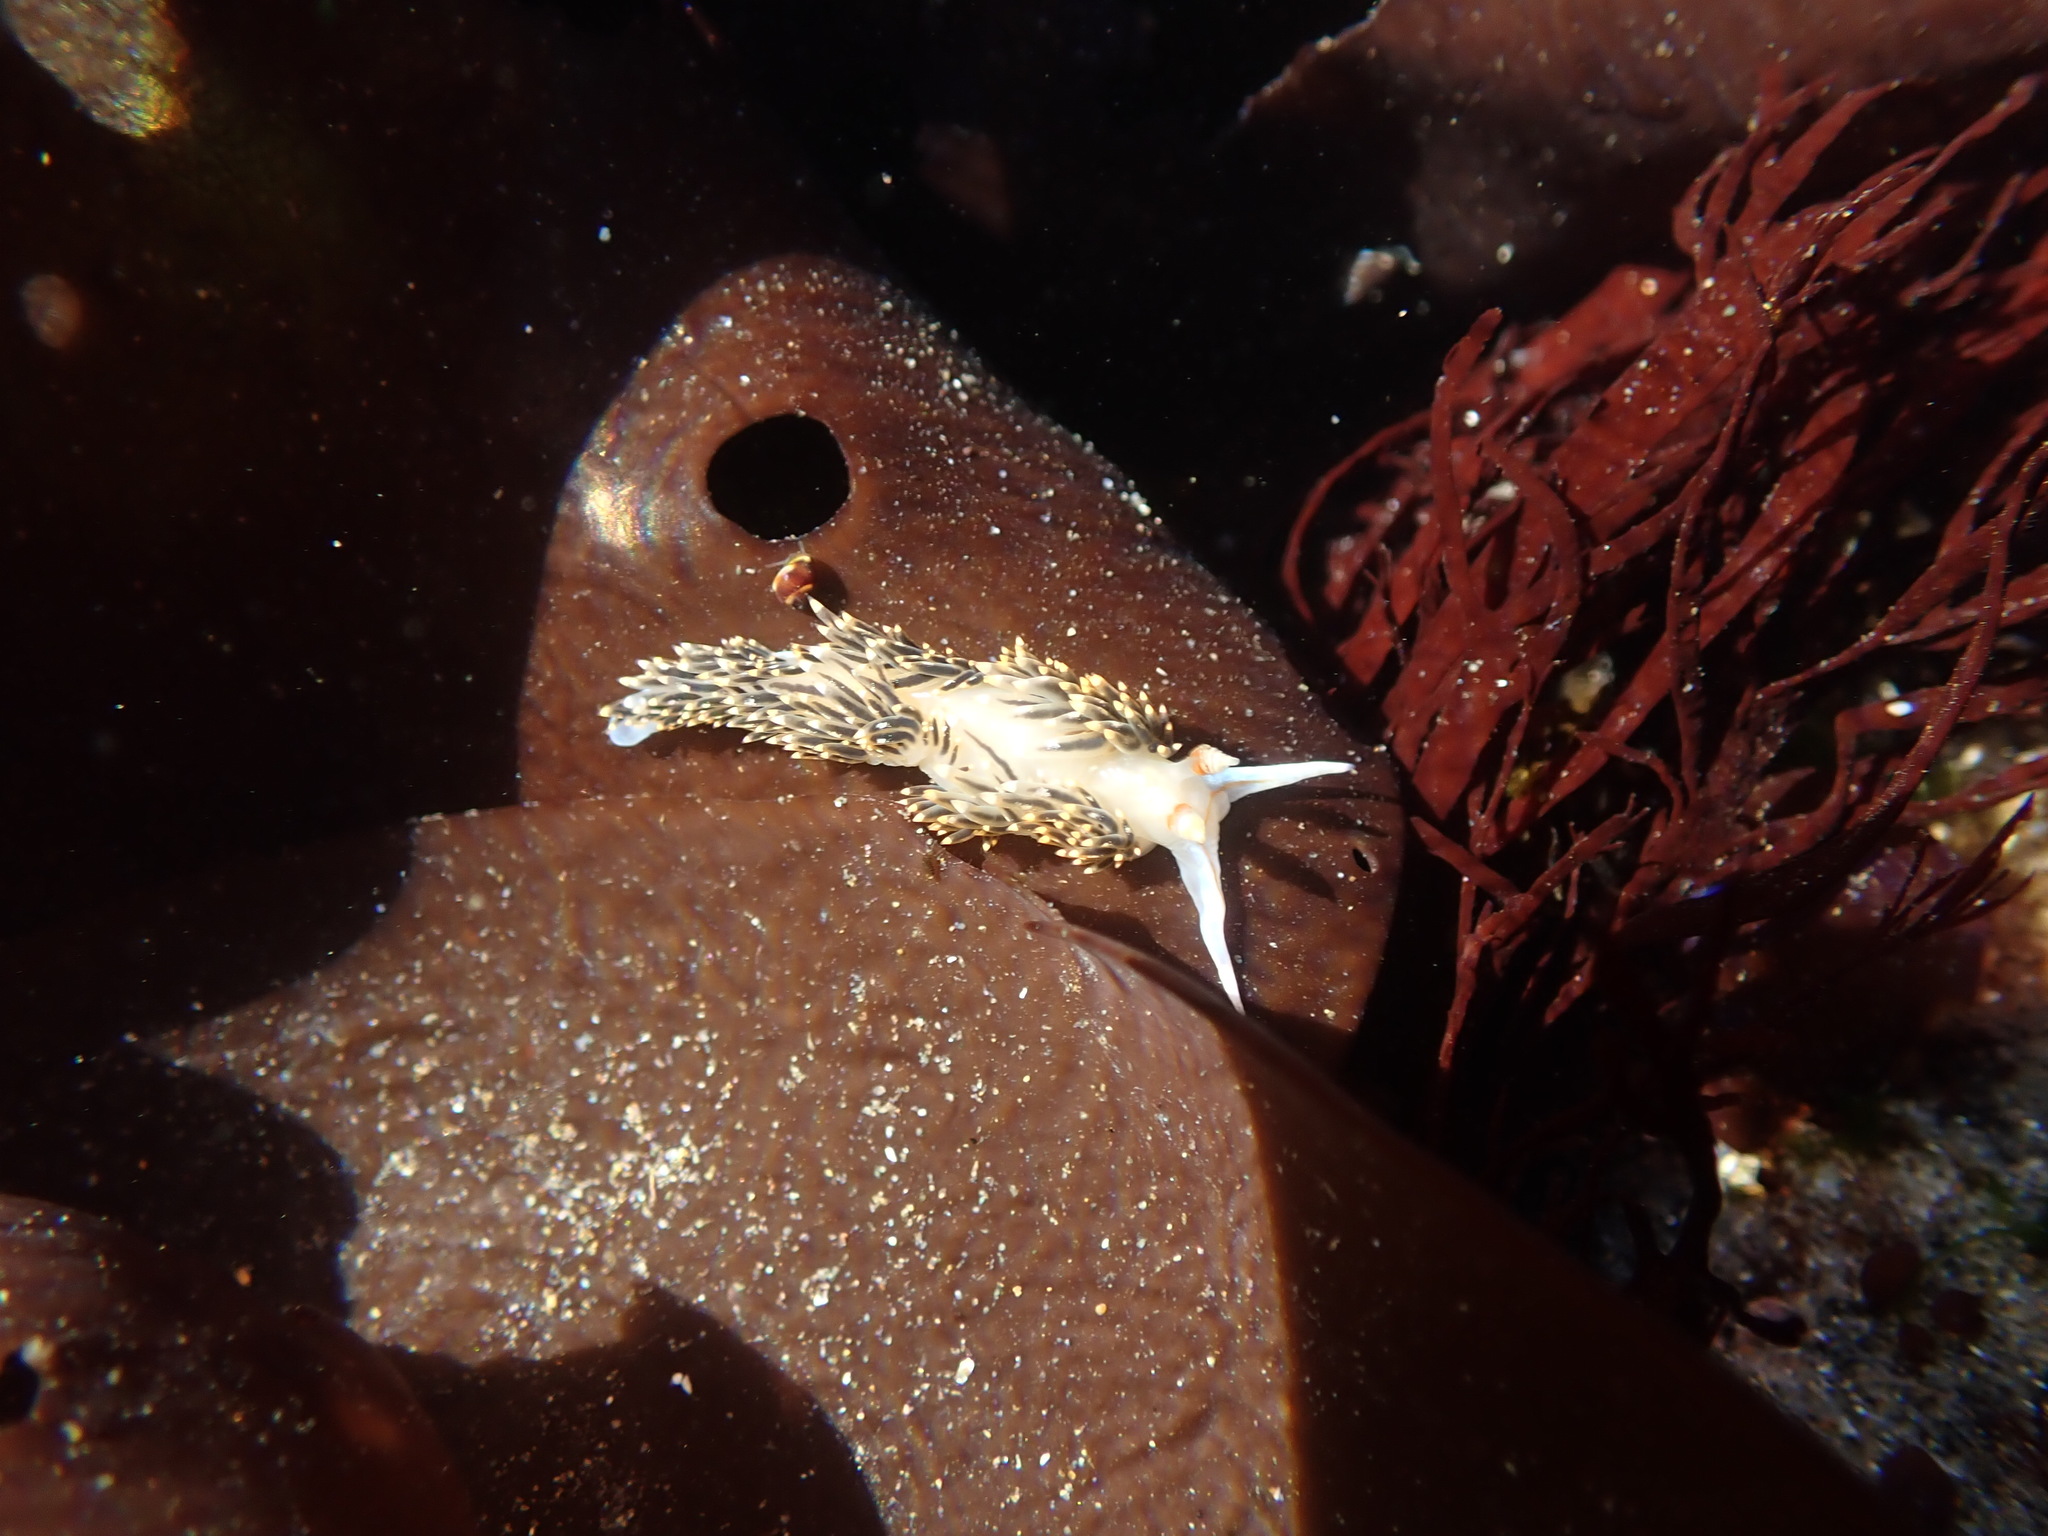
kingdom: Animalia
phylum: Mollusca
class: Gastropoda
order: Nudibranchia
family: Facelinidae
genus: Phidiana
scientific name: Phidiana hiltoni
